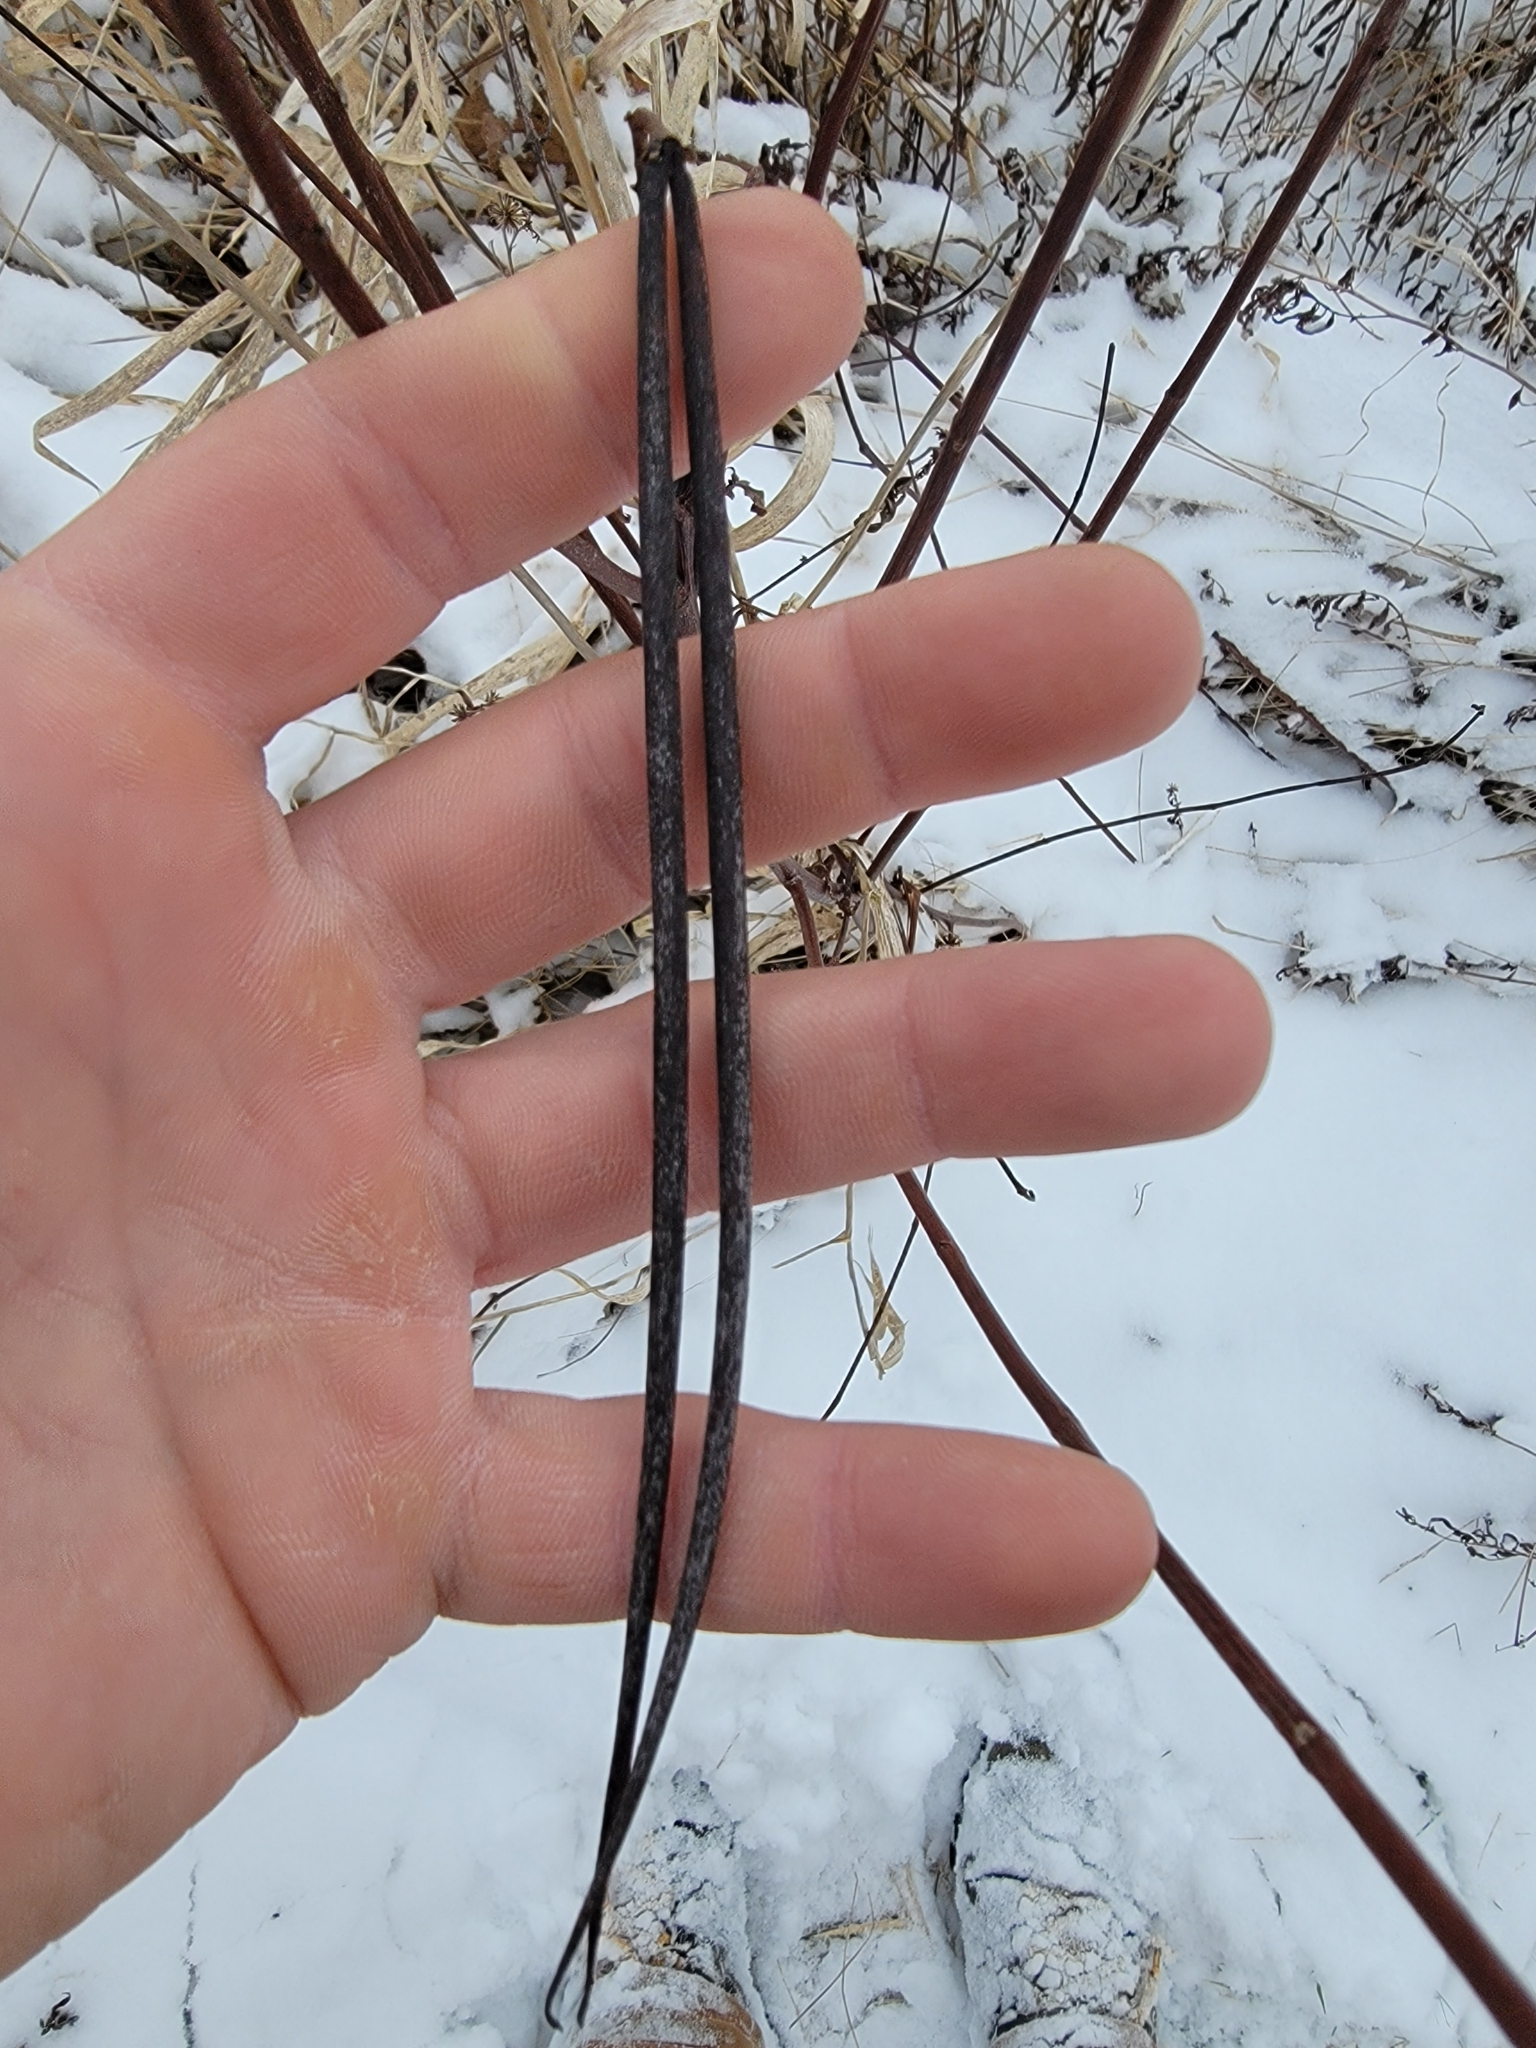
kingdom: Plantae
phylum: Tracheophyta
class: Magnoliopsida
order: Gentianales
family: Apocynaceae
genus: Apocynum
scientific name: Apocynum cannabinum
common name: Hemp dogbane
